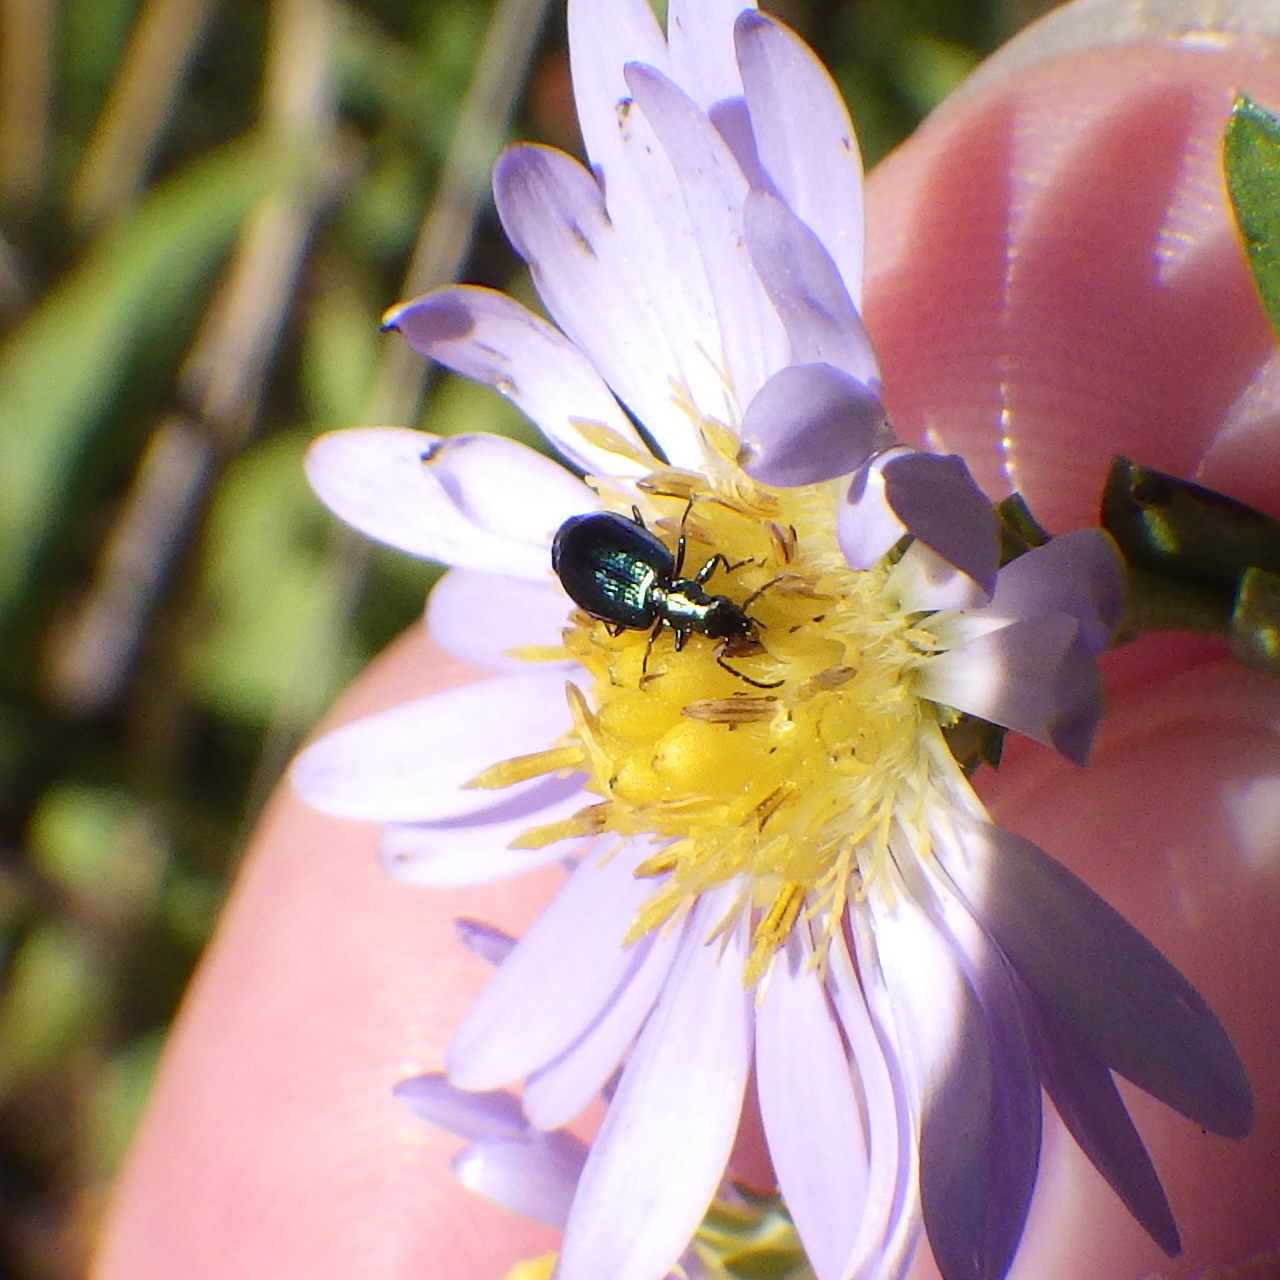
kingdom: Animalia
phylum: Arthropoda
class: Insecta
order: Coleoptera
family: Carabidae
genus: Lebia
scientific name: Lebia viridis
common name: Flower lebia beetle
